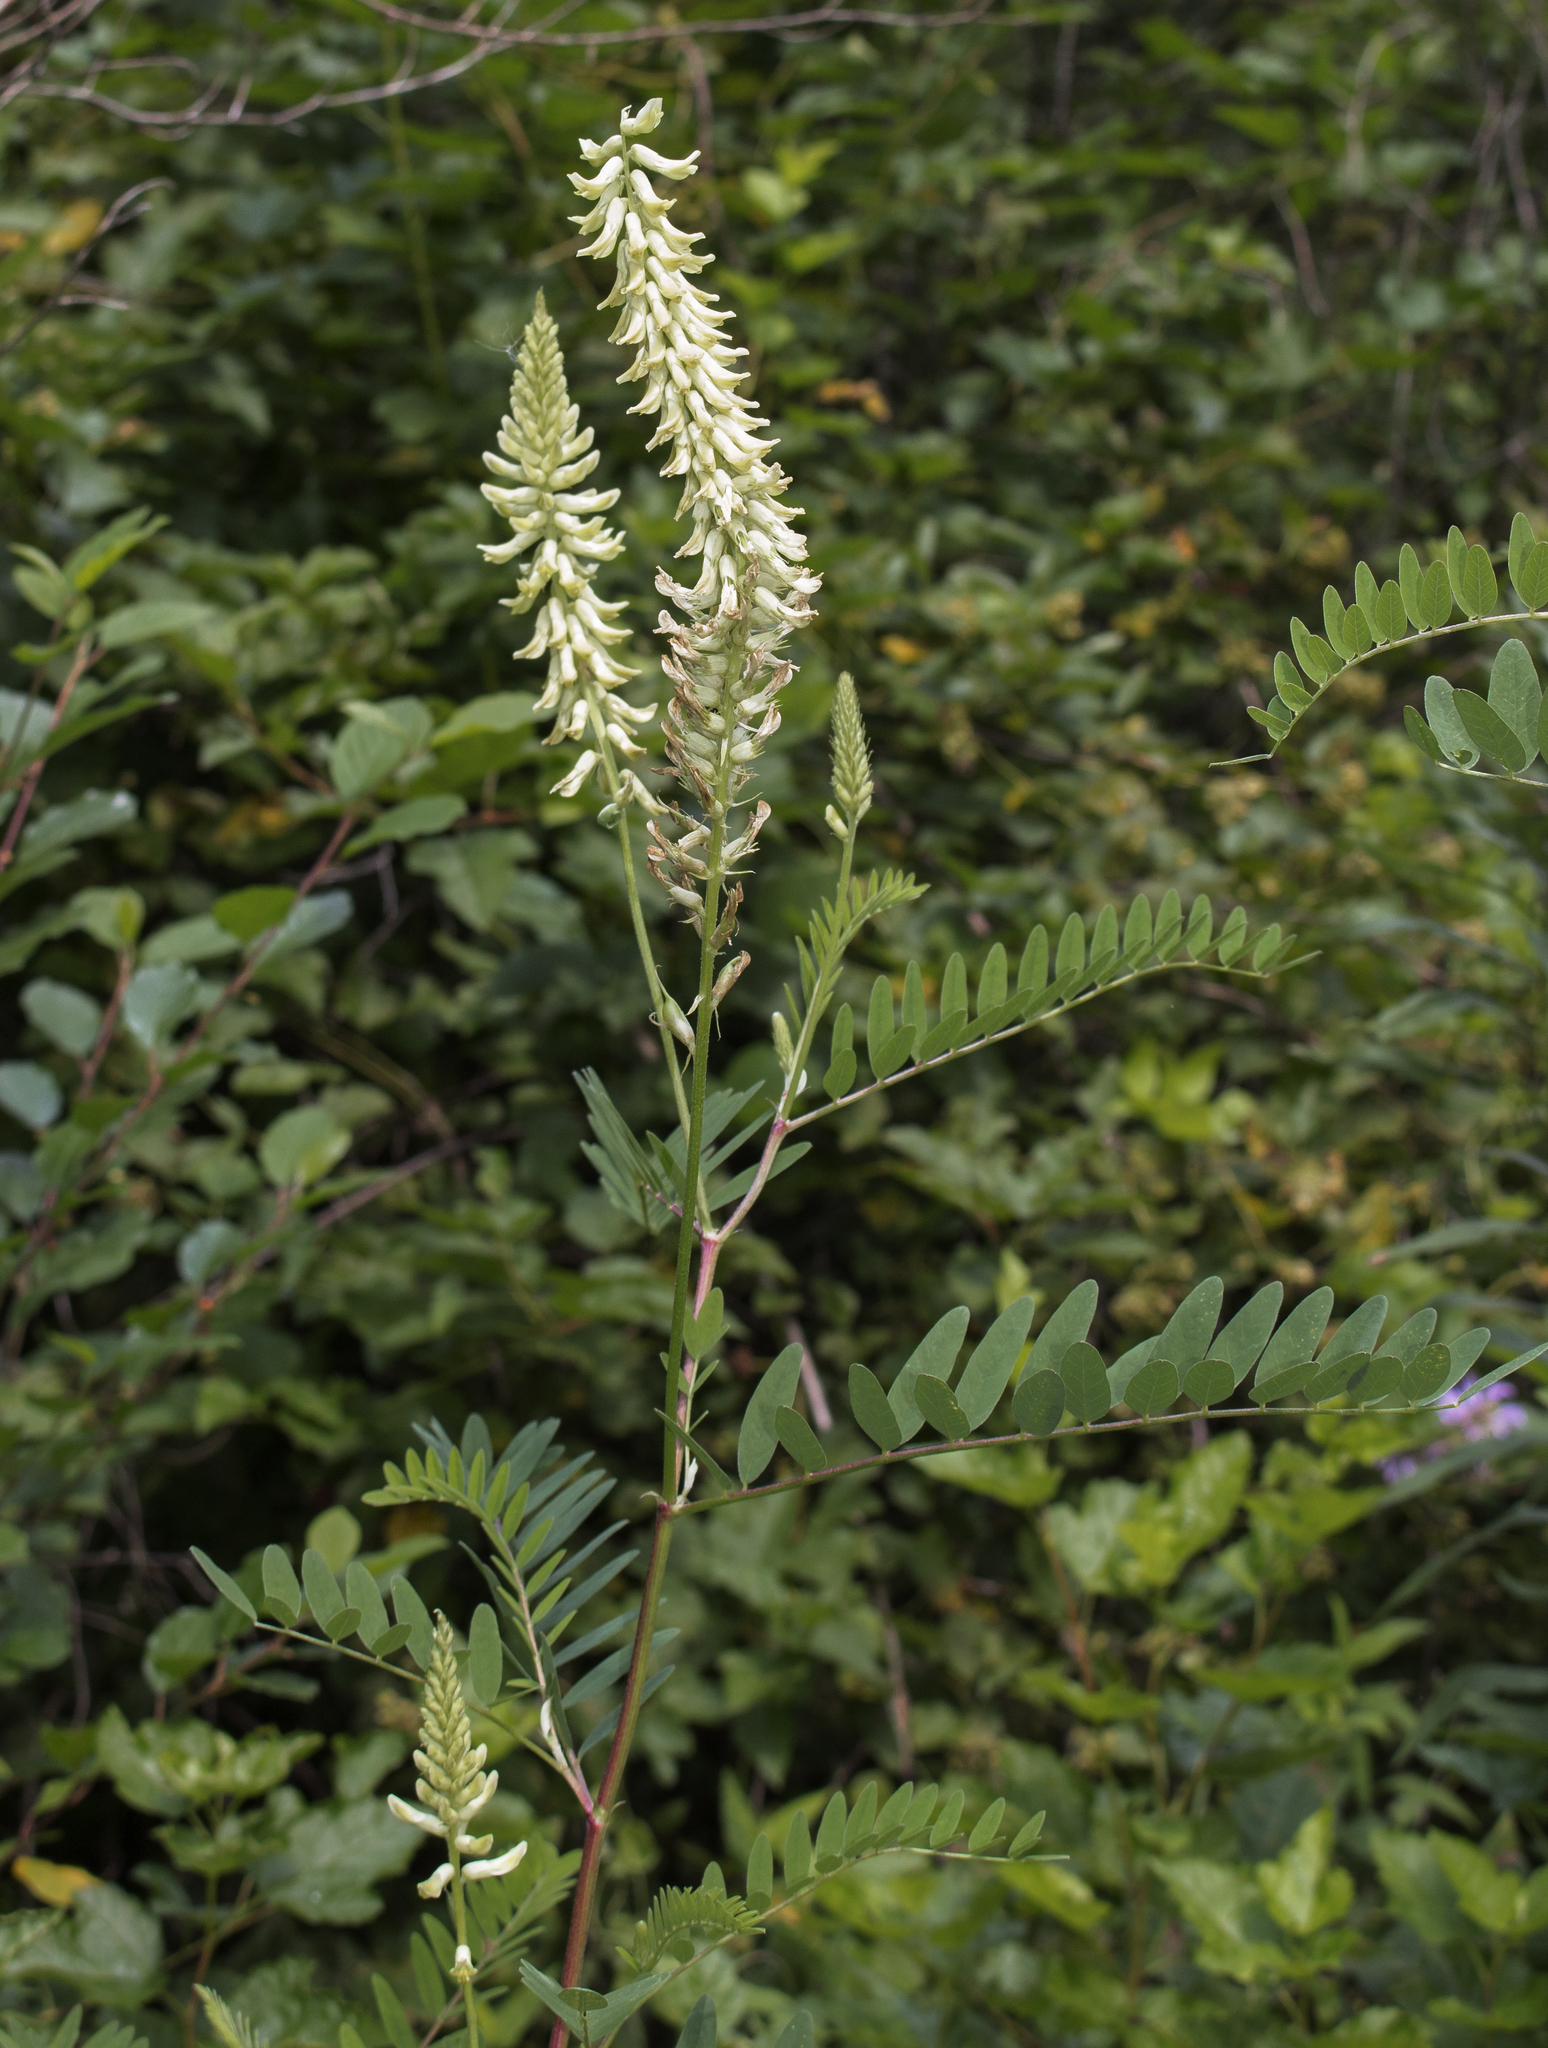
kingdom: Plantae
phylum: Tracheophyta
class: Magnoliopsida
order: Fabales
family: Fabaceae
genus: Astragalus
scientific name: Astragalus canadensis
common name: Canada milk-vetch
